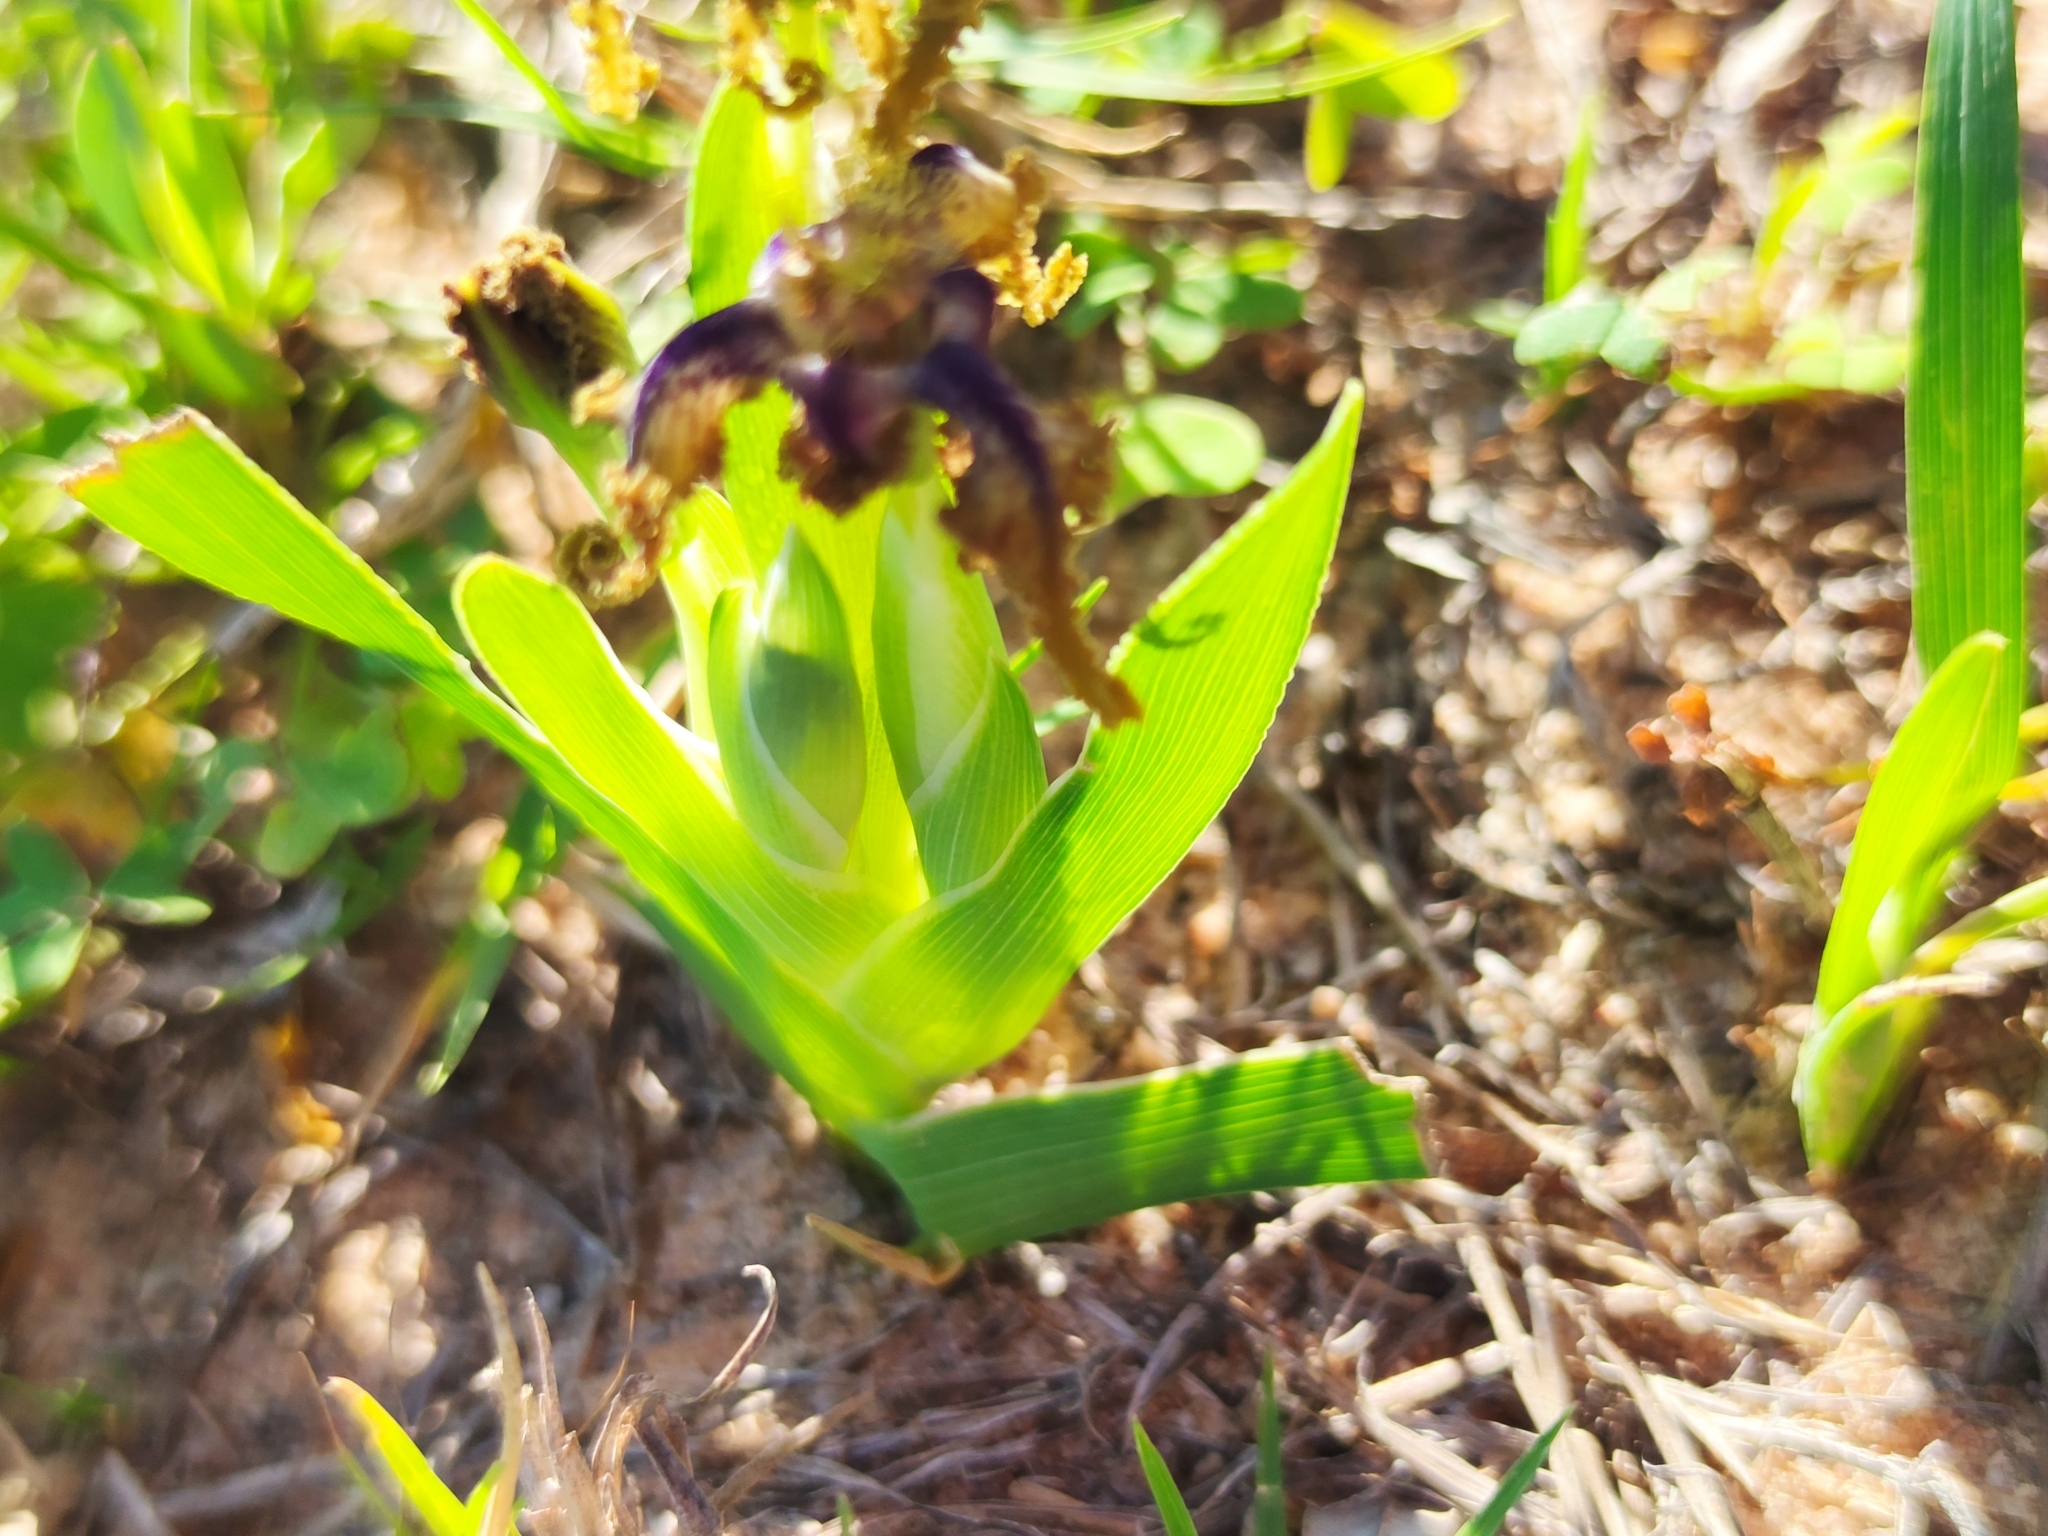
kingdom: Plantae
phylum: Tracheophyta
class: Liliopsida
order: Asparagales
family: Iridaceae
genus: Ferraria
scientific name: Ferraria uncinata
